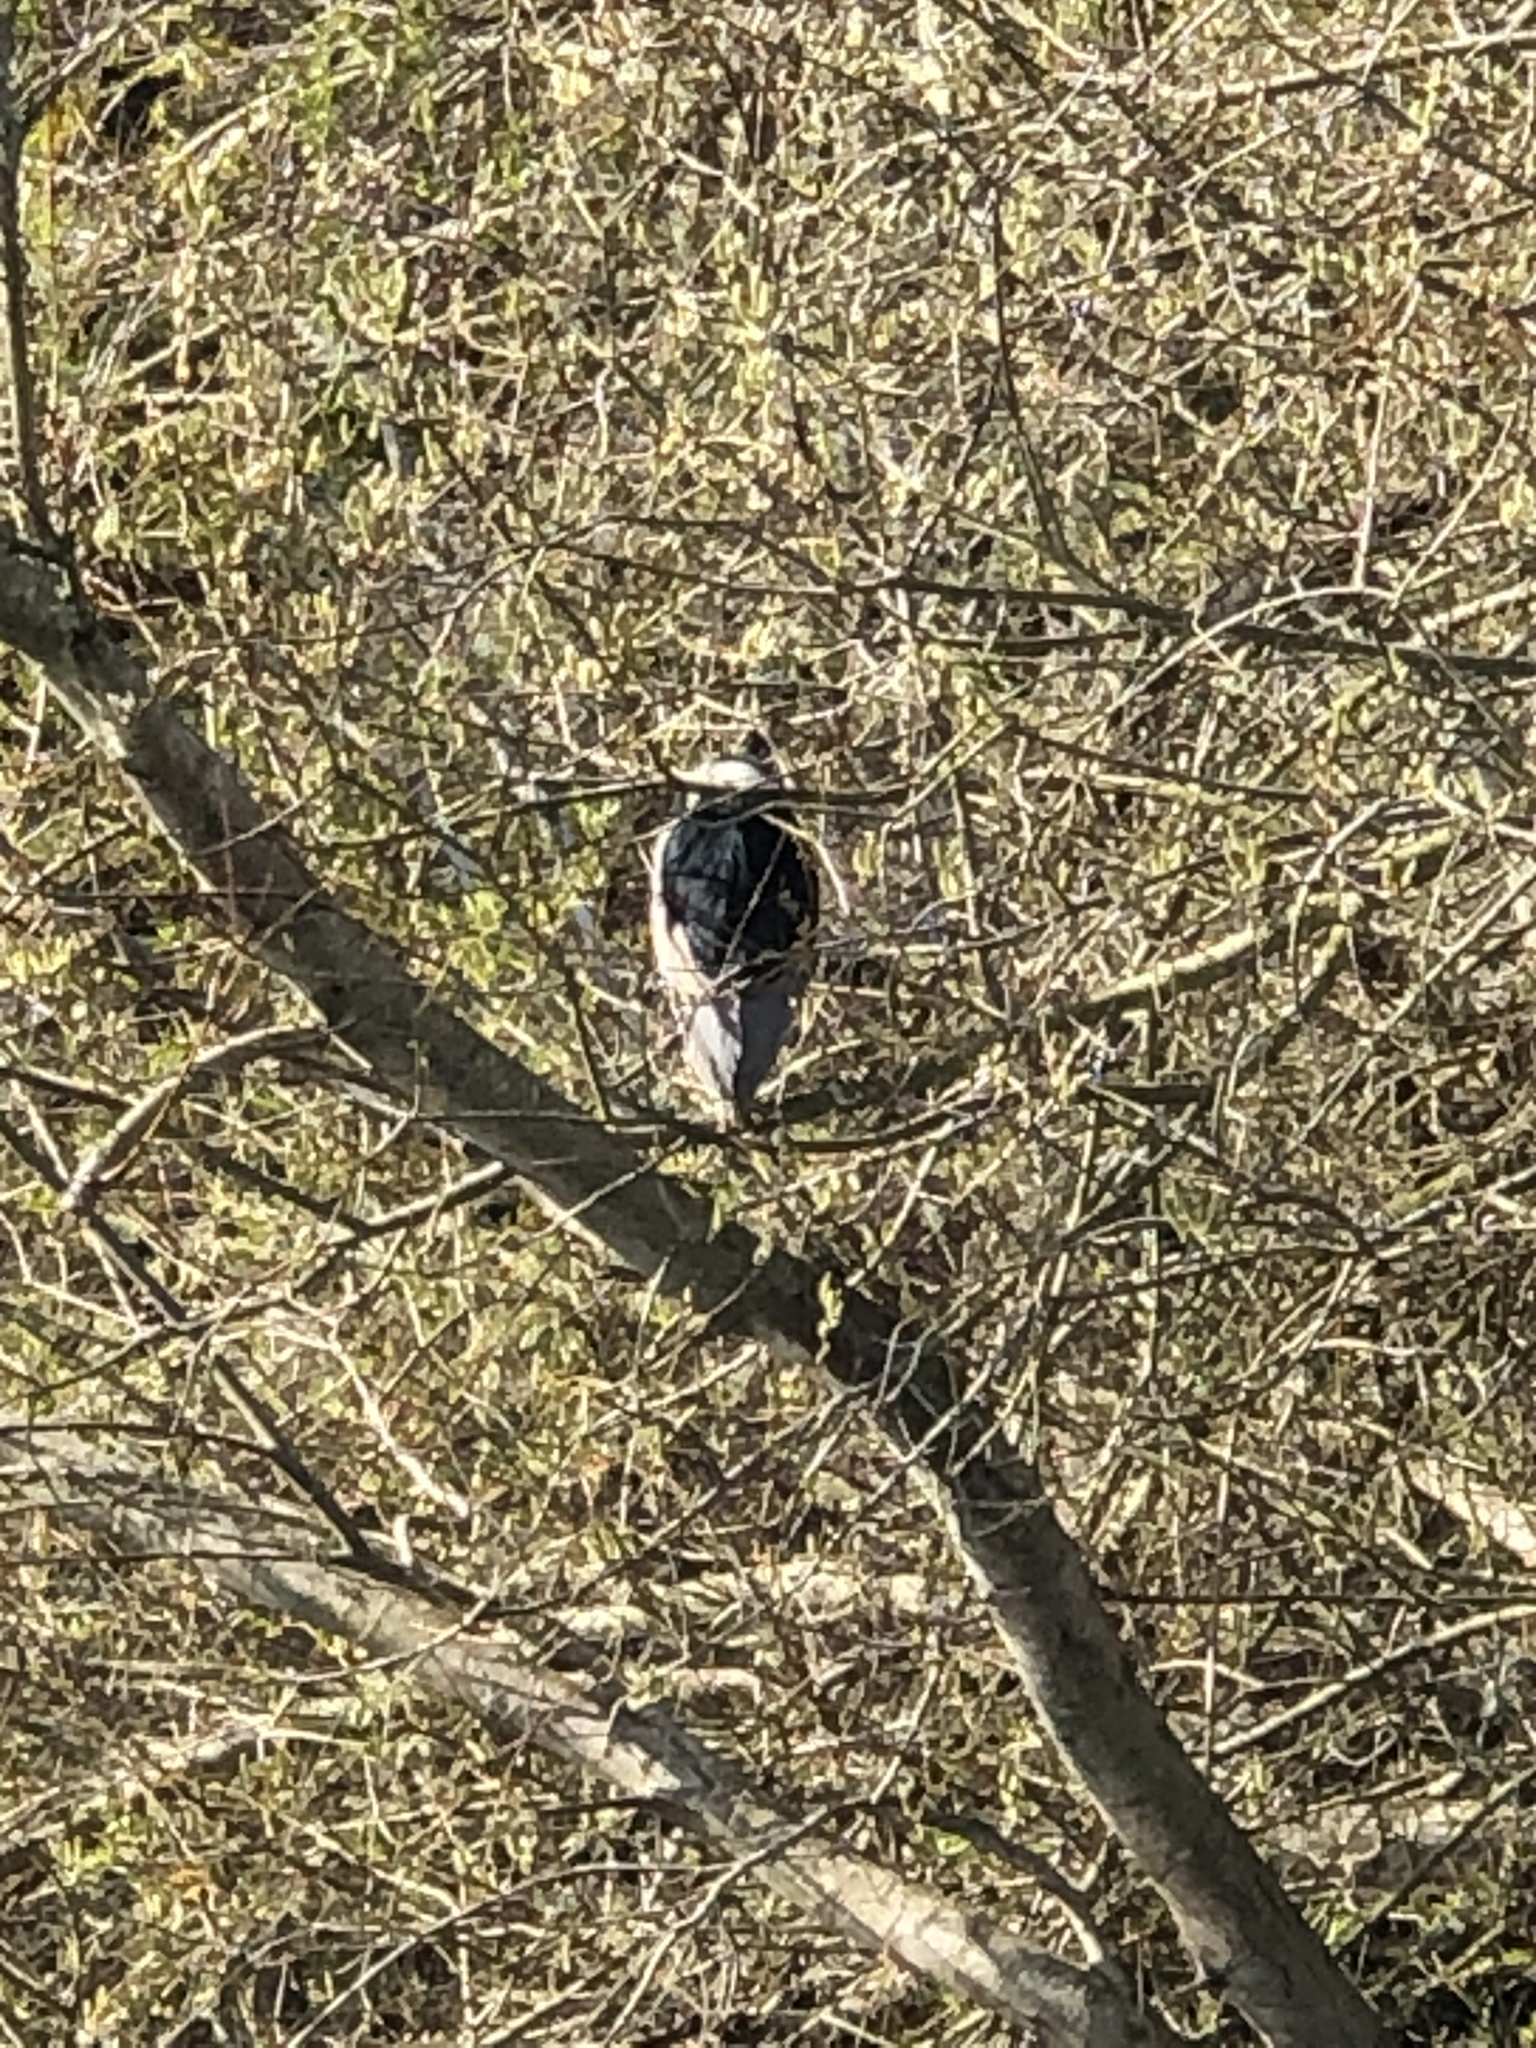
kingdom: Animalia
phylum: Chordata
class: Aves
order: Pelecaniformes
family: Ardeidae
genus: Nycticorax
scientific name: Nycticorax nycticorax
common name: Black-crowned night heron
